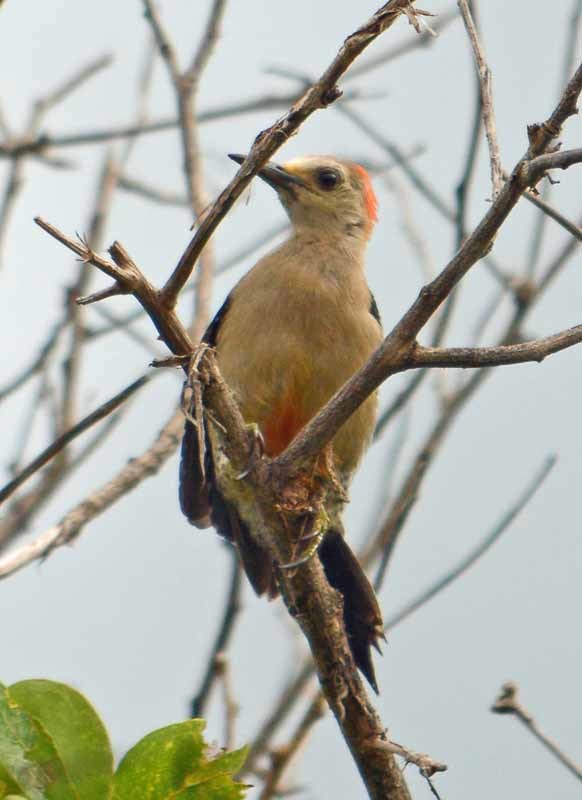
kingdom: Animalia
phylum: Chordata
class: Aves
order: Piciformes
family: Picidae
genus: Melanerpes
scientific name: Melanerpes aurifrons
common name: Golden-fronted woodpecker
